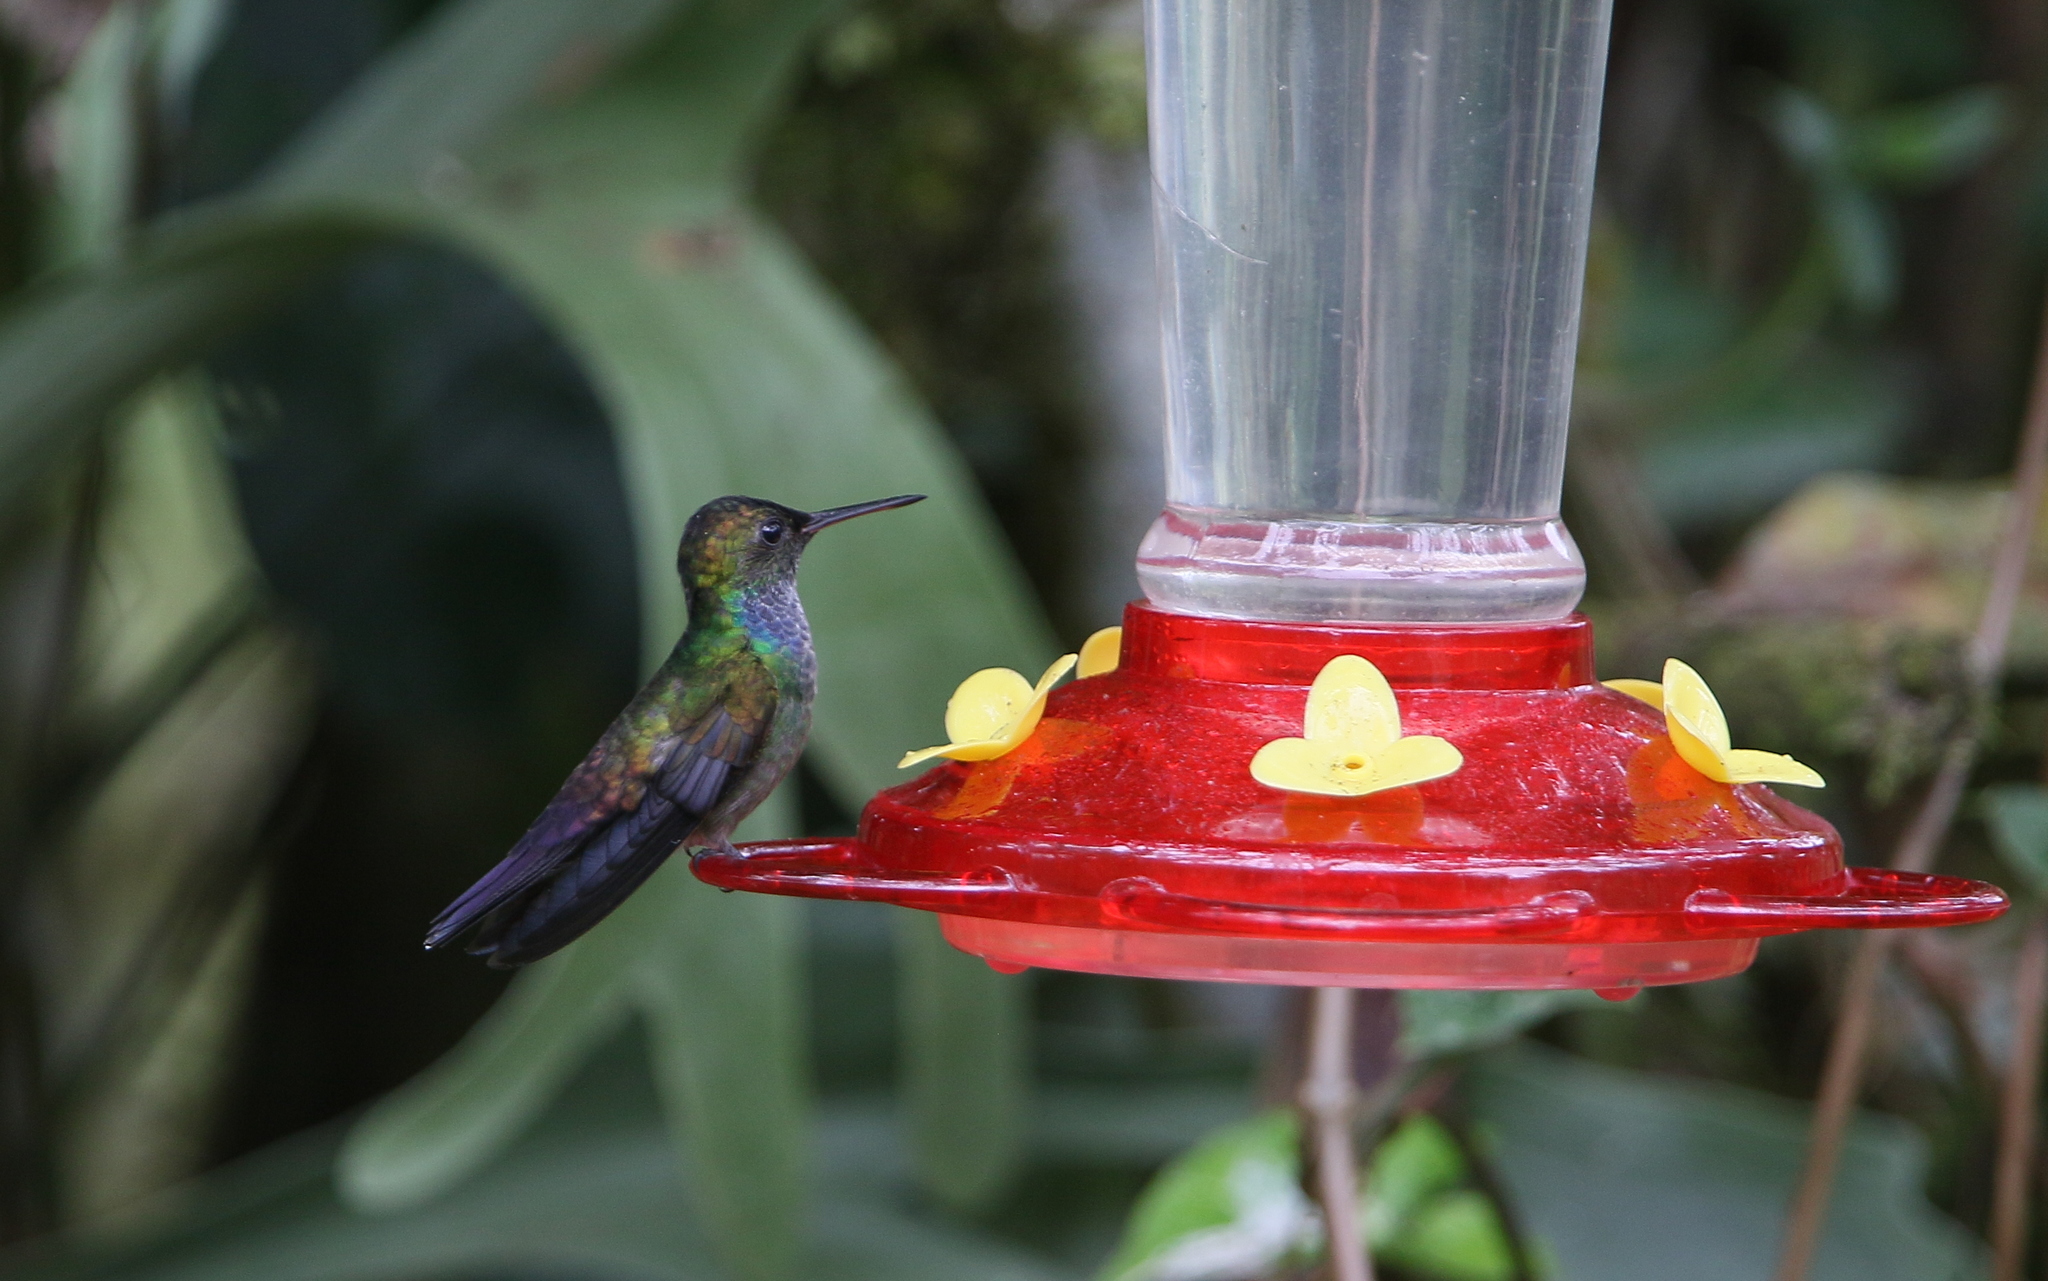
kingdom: Animalia
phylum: Chordata
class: Aves
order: Apodiformes
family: Trochilidae
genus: Polyerata
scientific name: Polyerata amabilis
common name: Blue-chested hummingbird
